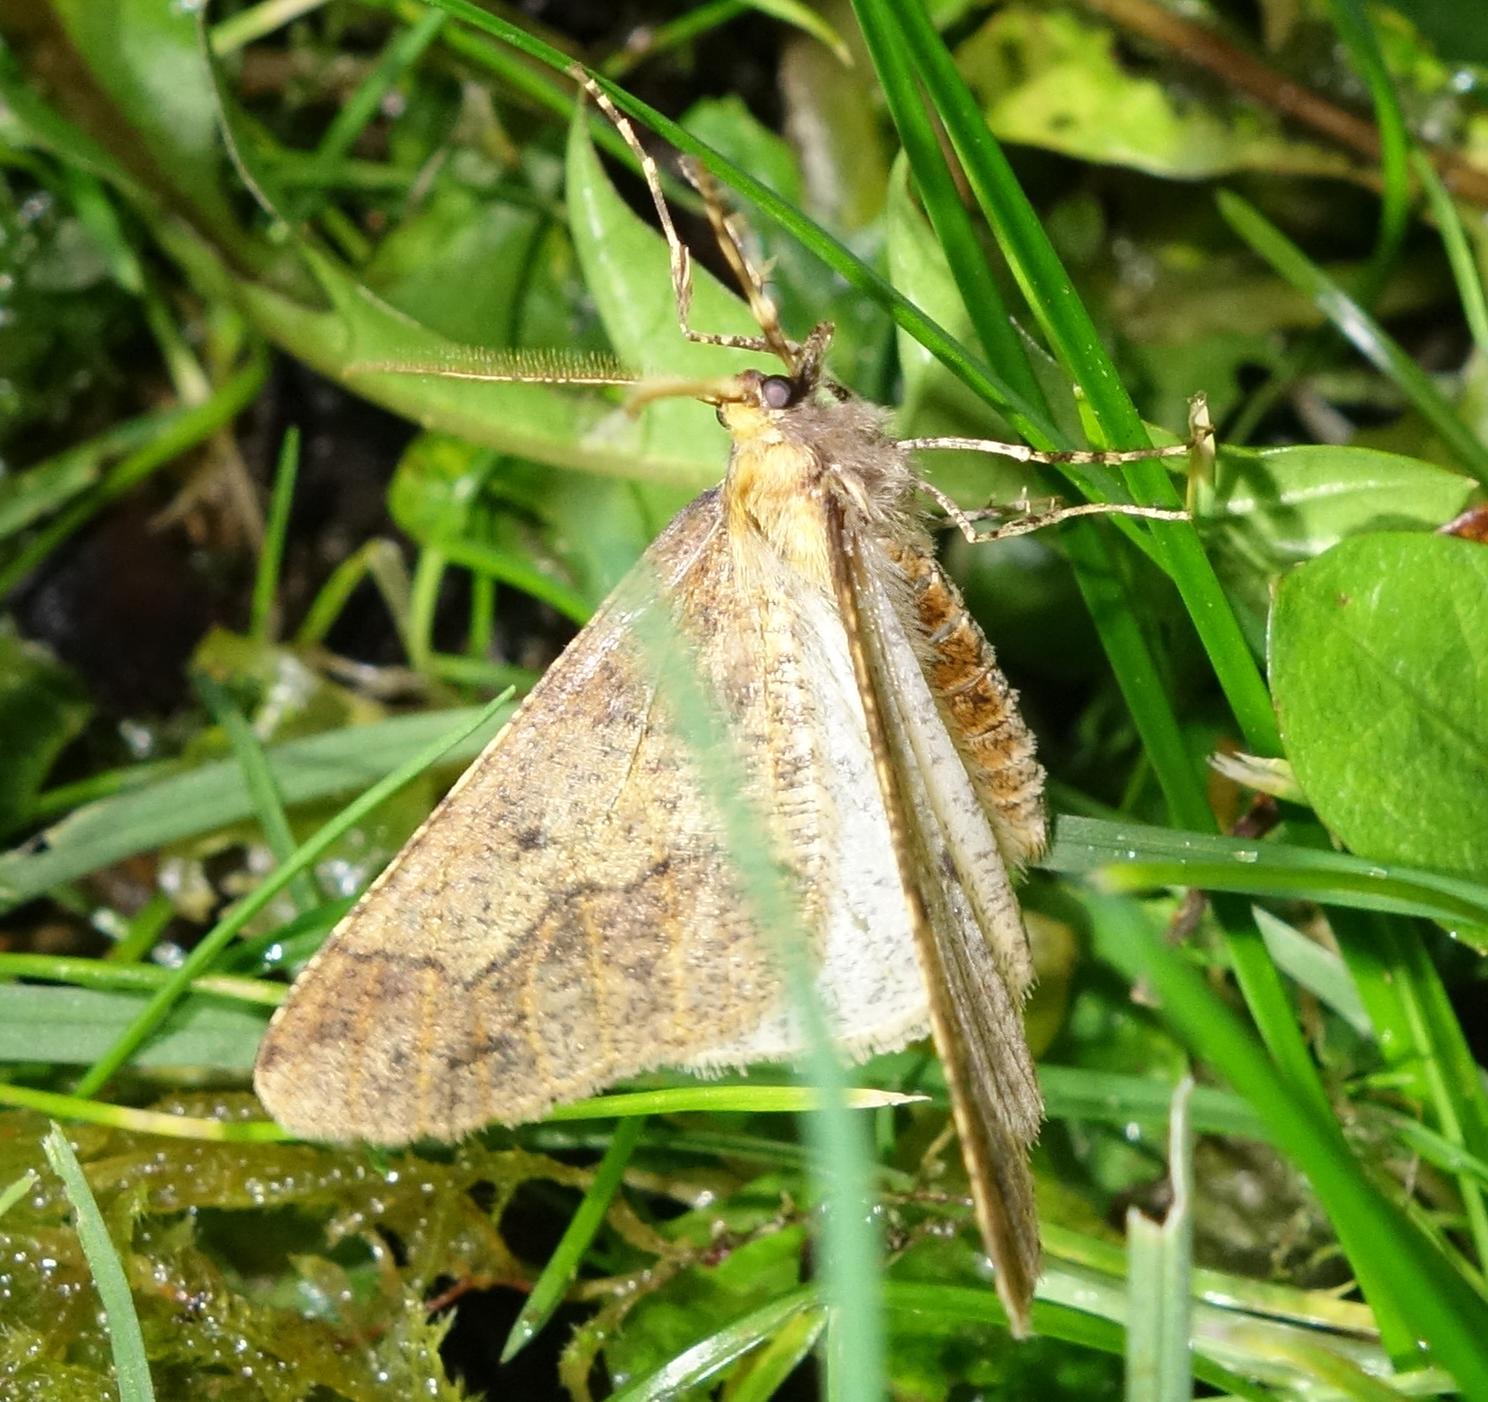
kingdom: Animalia
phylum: Arthropoda
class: Insecta
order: Lepidoptera
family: Geometridae
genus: Erannis
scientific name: Erannis defoliaria
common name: Mottled umber
